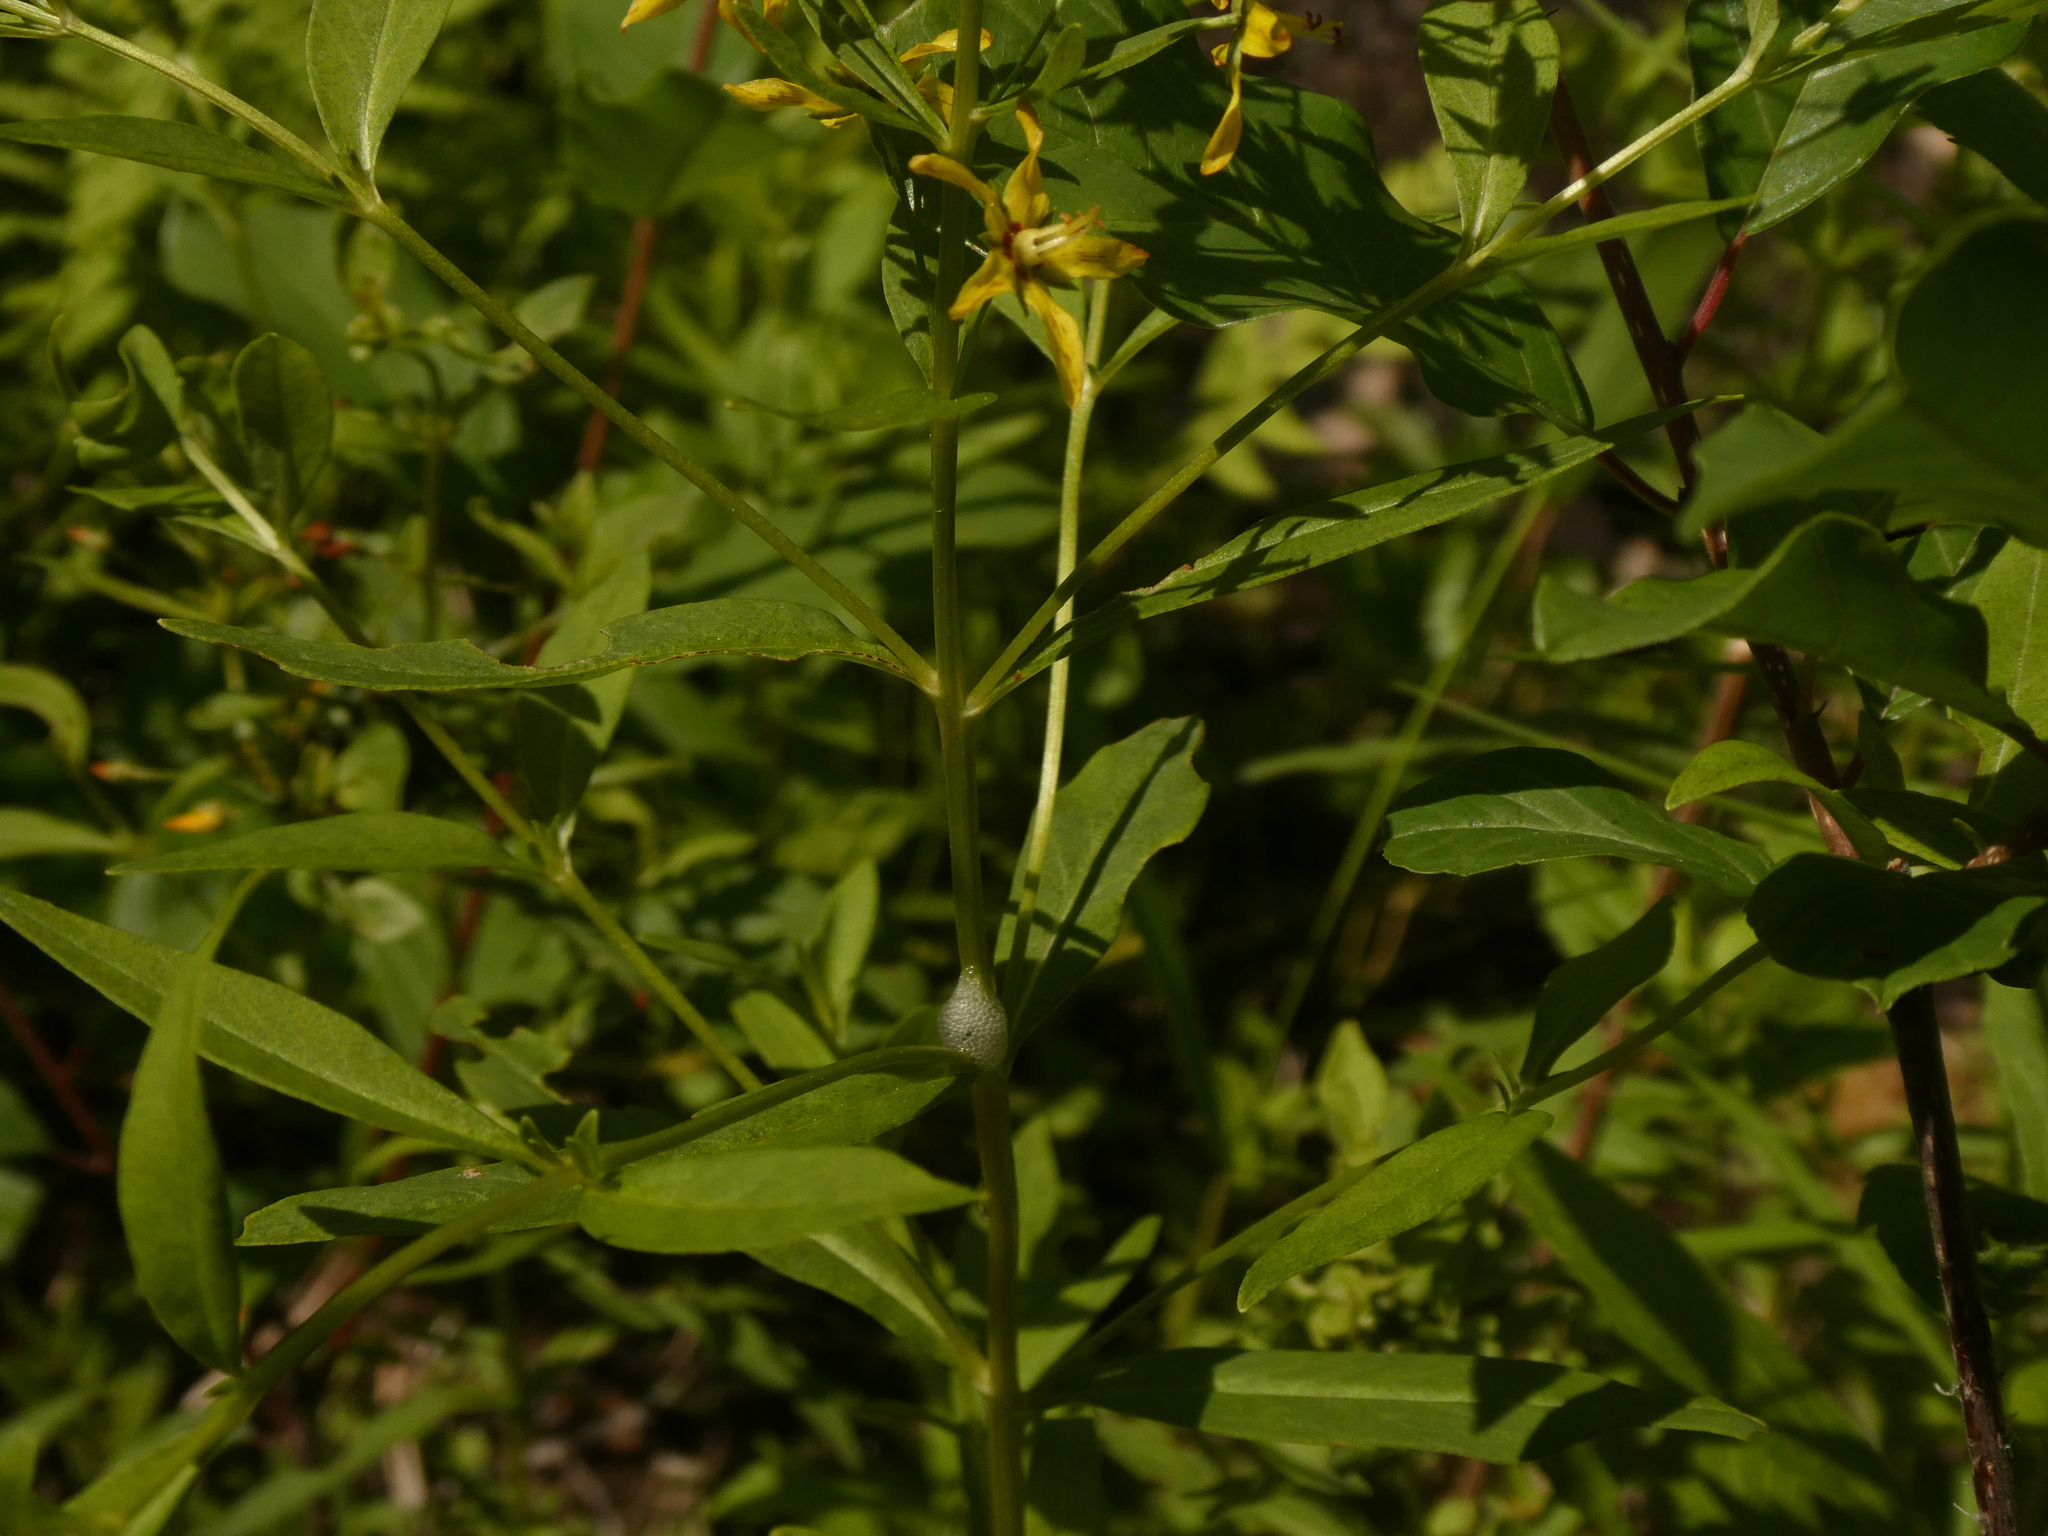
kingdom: Plantae
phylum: Tracheophyta
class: Magnoliopsida
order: Ericales
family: Primulaceae
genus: Lysimachia
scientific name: Lysimachia terrestris
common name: Lake loosestrife
